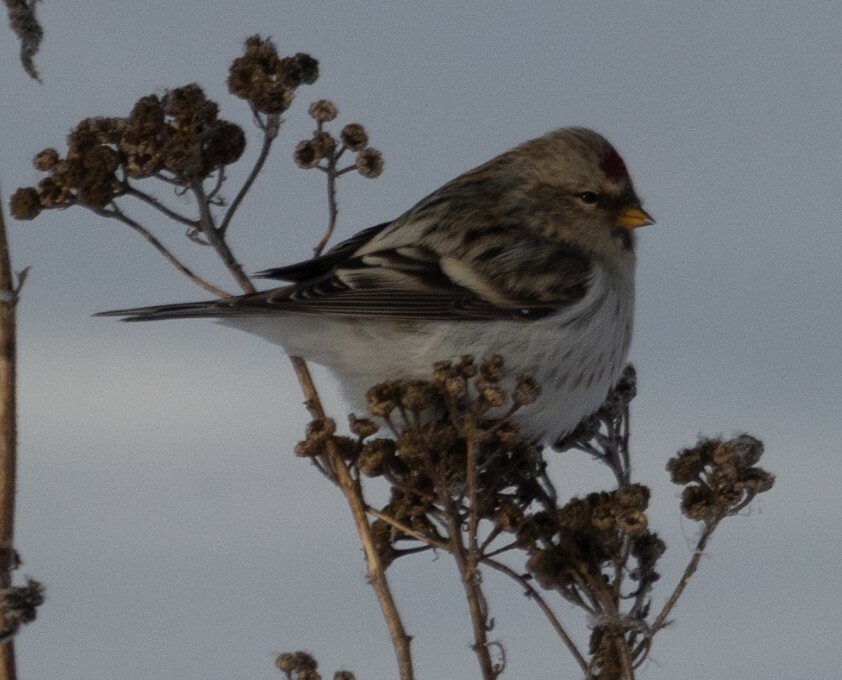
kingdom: Animalia
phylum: Chordata
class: Aves
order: Passeriformes
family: Fringillidae
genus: Acanthis
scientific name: Acanthis flammea
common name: Common redpoll
